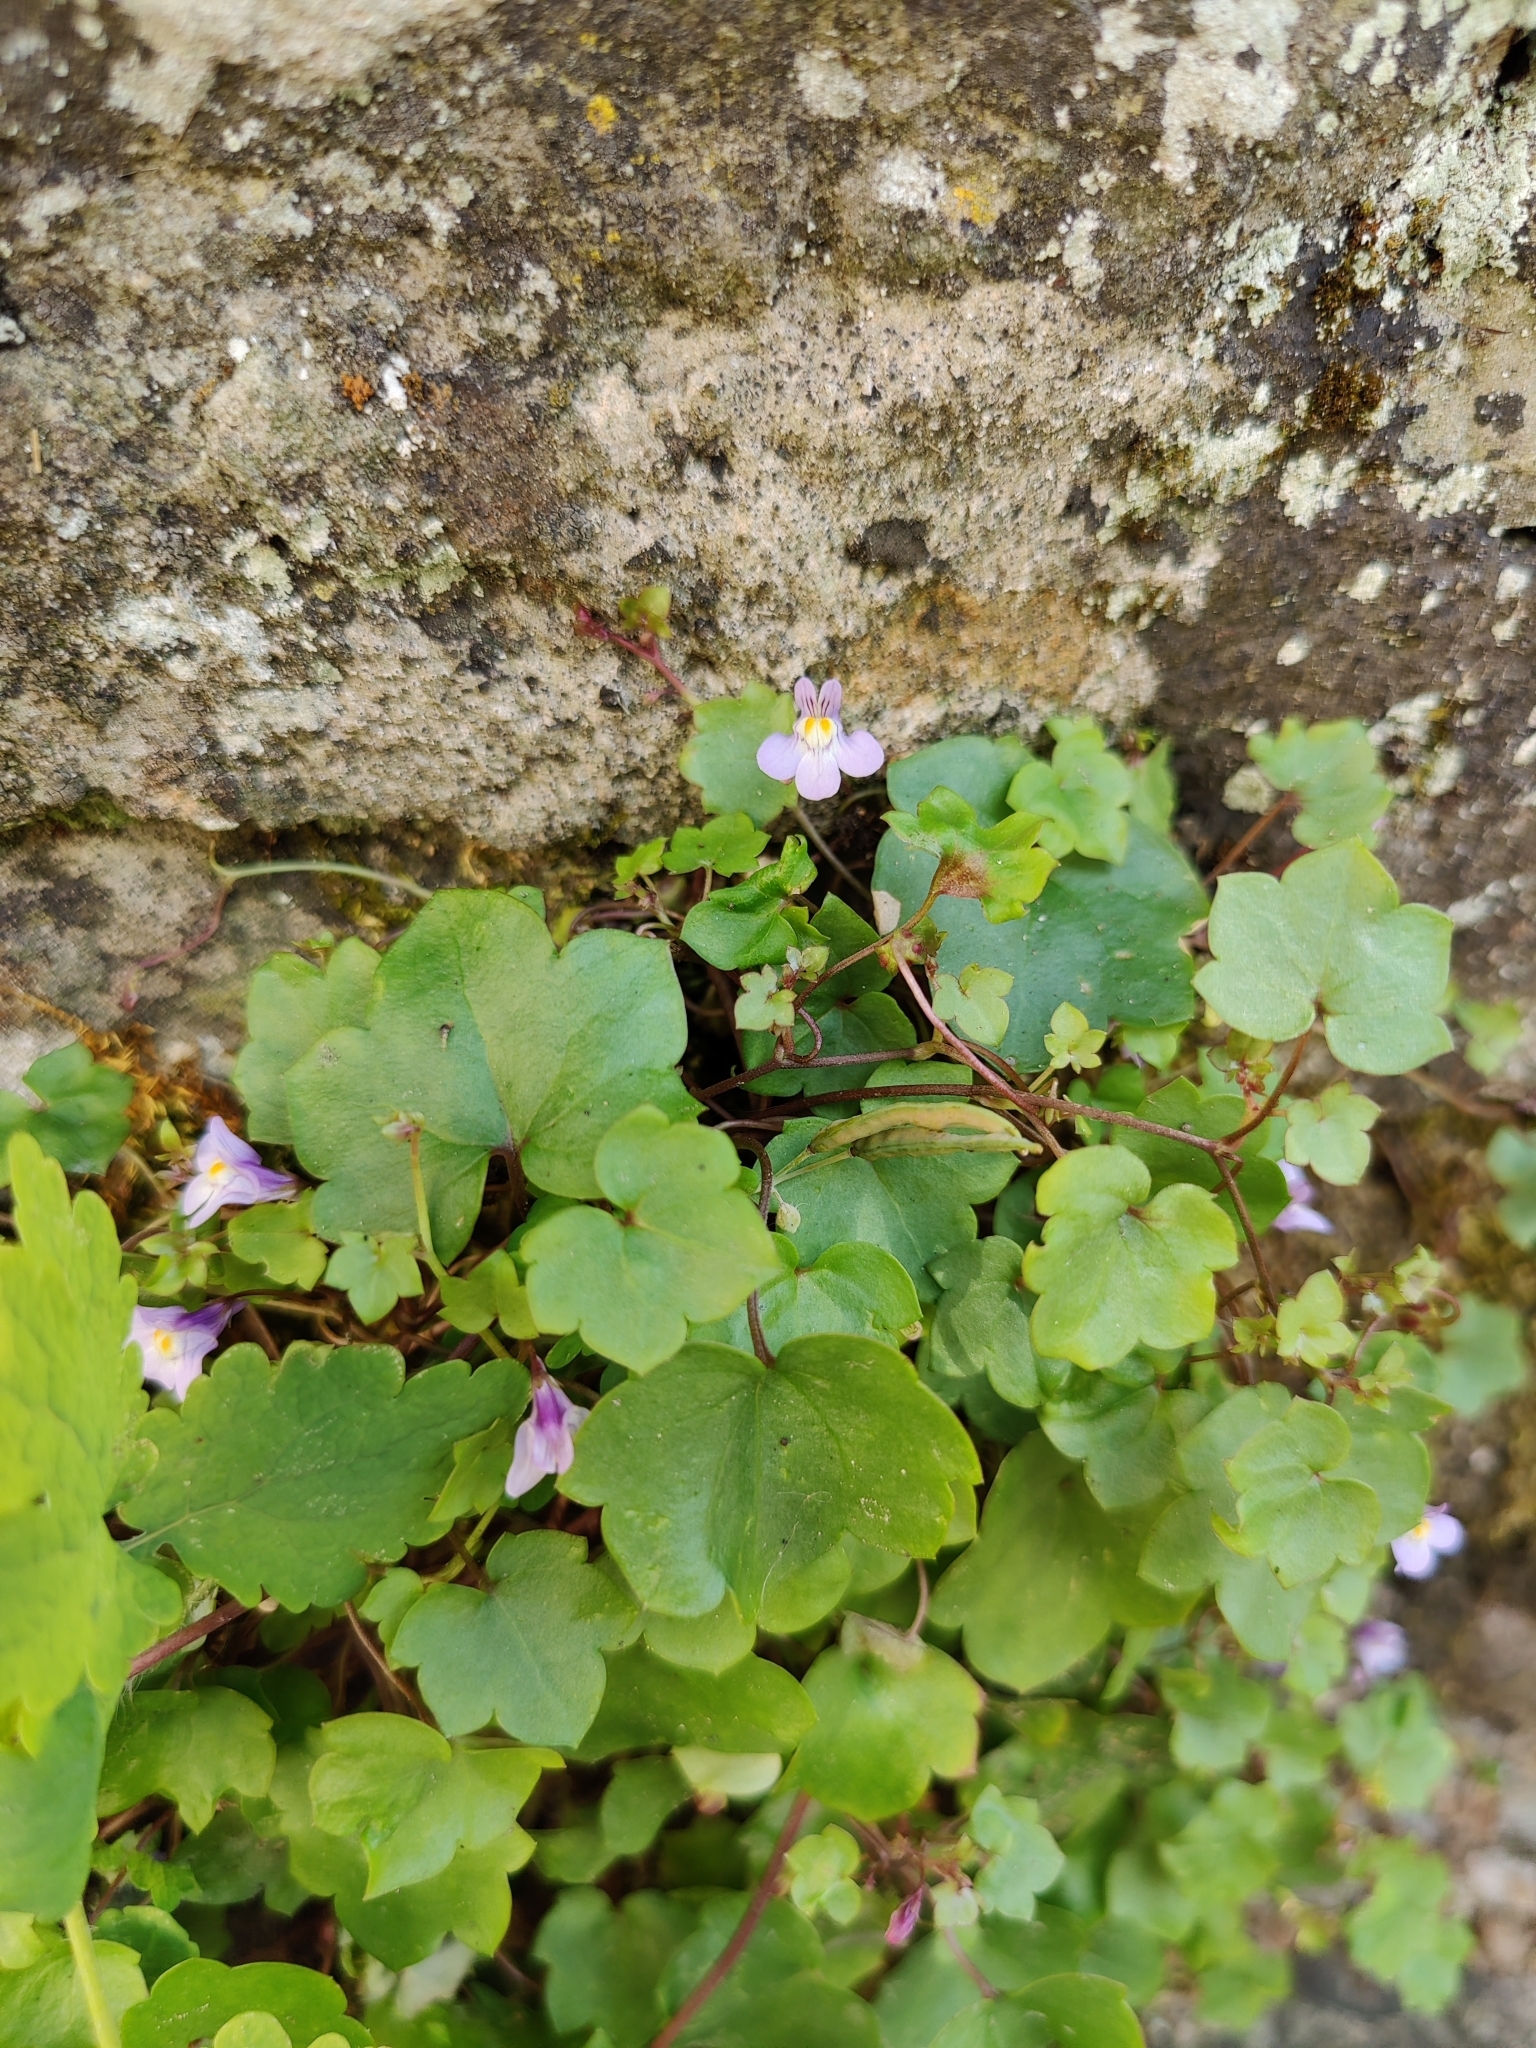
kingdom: Plantae
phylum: Tracheophyta
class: Magnoliopsida
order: Lamiales
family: Plantaginaceae
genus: Cymbalaria
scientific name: Cymbalaria muralis
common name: Ivy-leaved toadflax
